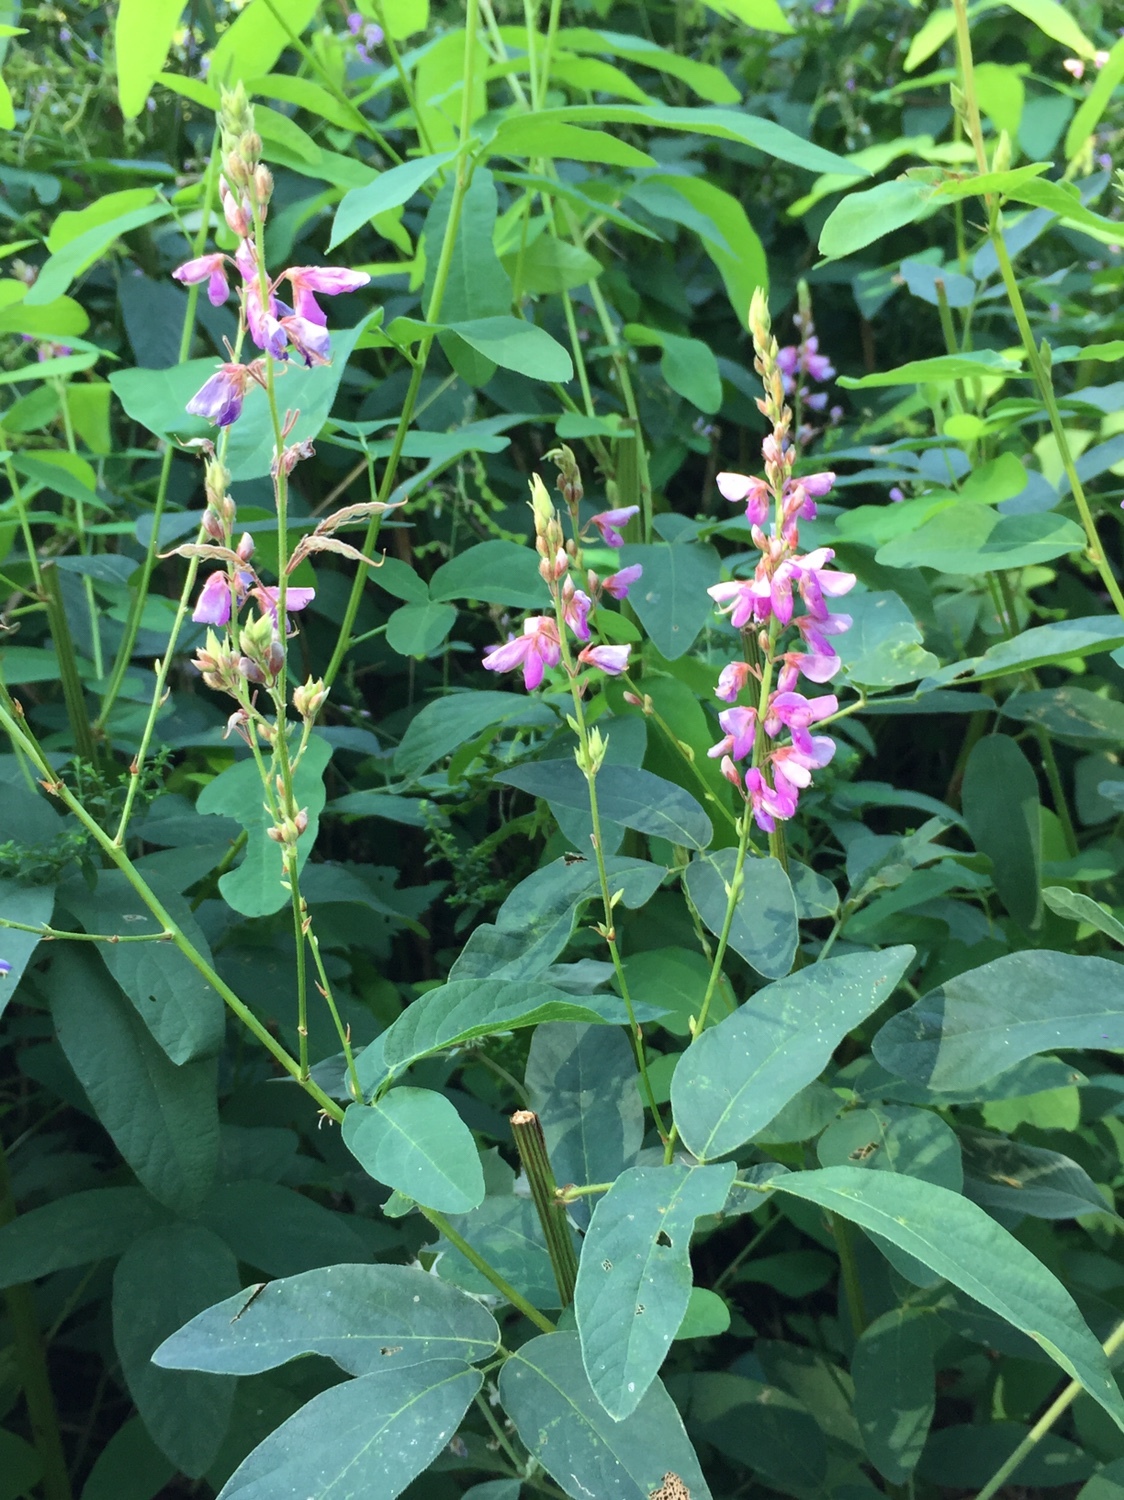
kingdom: Plantae
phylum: Tracheophyta
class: Magnoliopsida
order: Fabales
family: Fabaceae
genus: Desmodium
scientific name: Desmodium canadense
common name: Canada tick-trefoil
